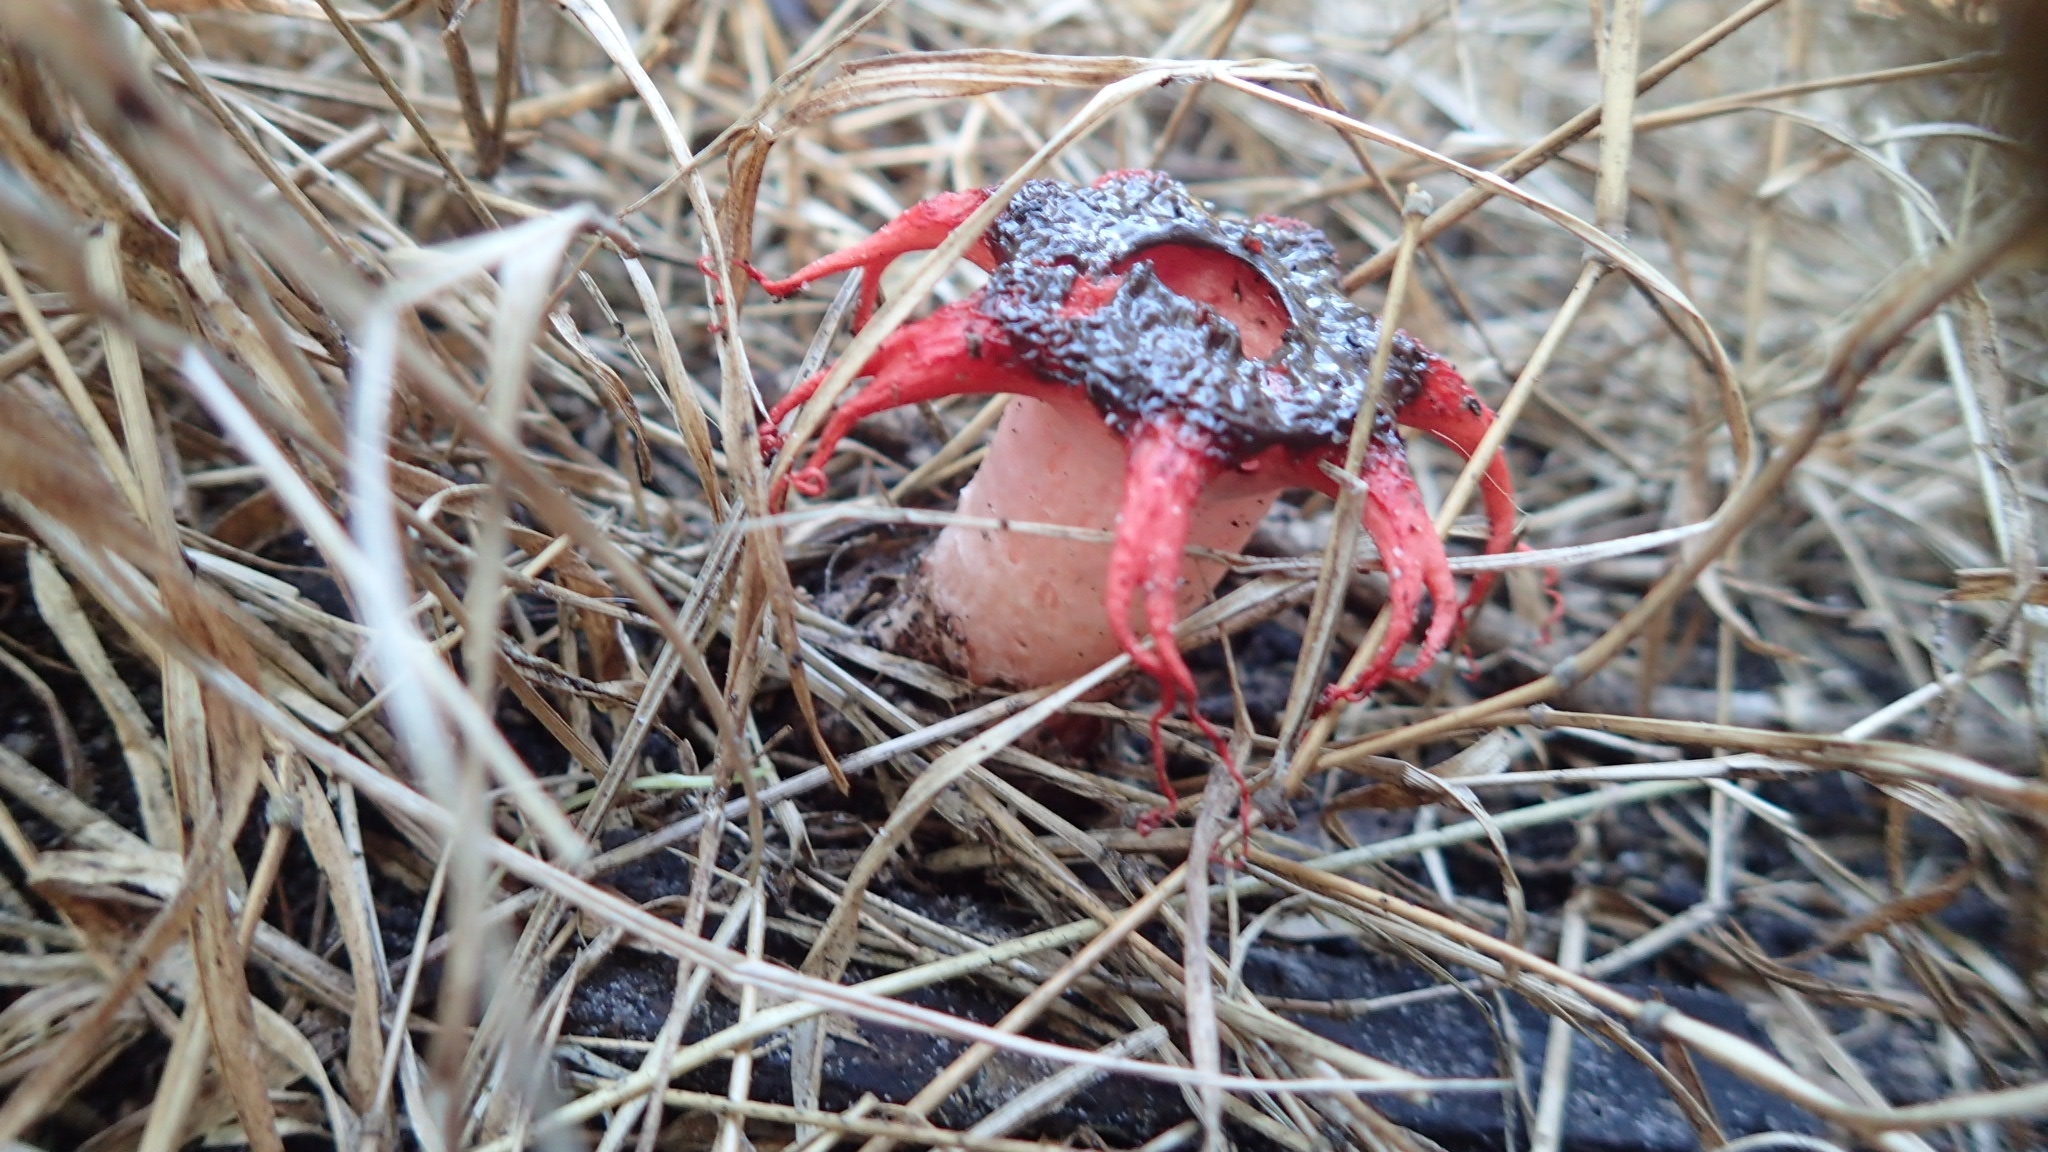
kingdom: Fungi
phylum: Basidiomycota
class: Agaricomycetes
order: Phallales
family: Phallaceae
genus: Aseroe
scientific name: Aseroe rubra
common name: Starfish fungus
